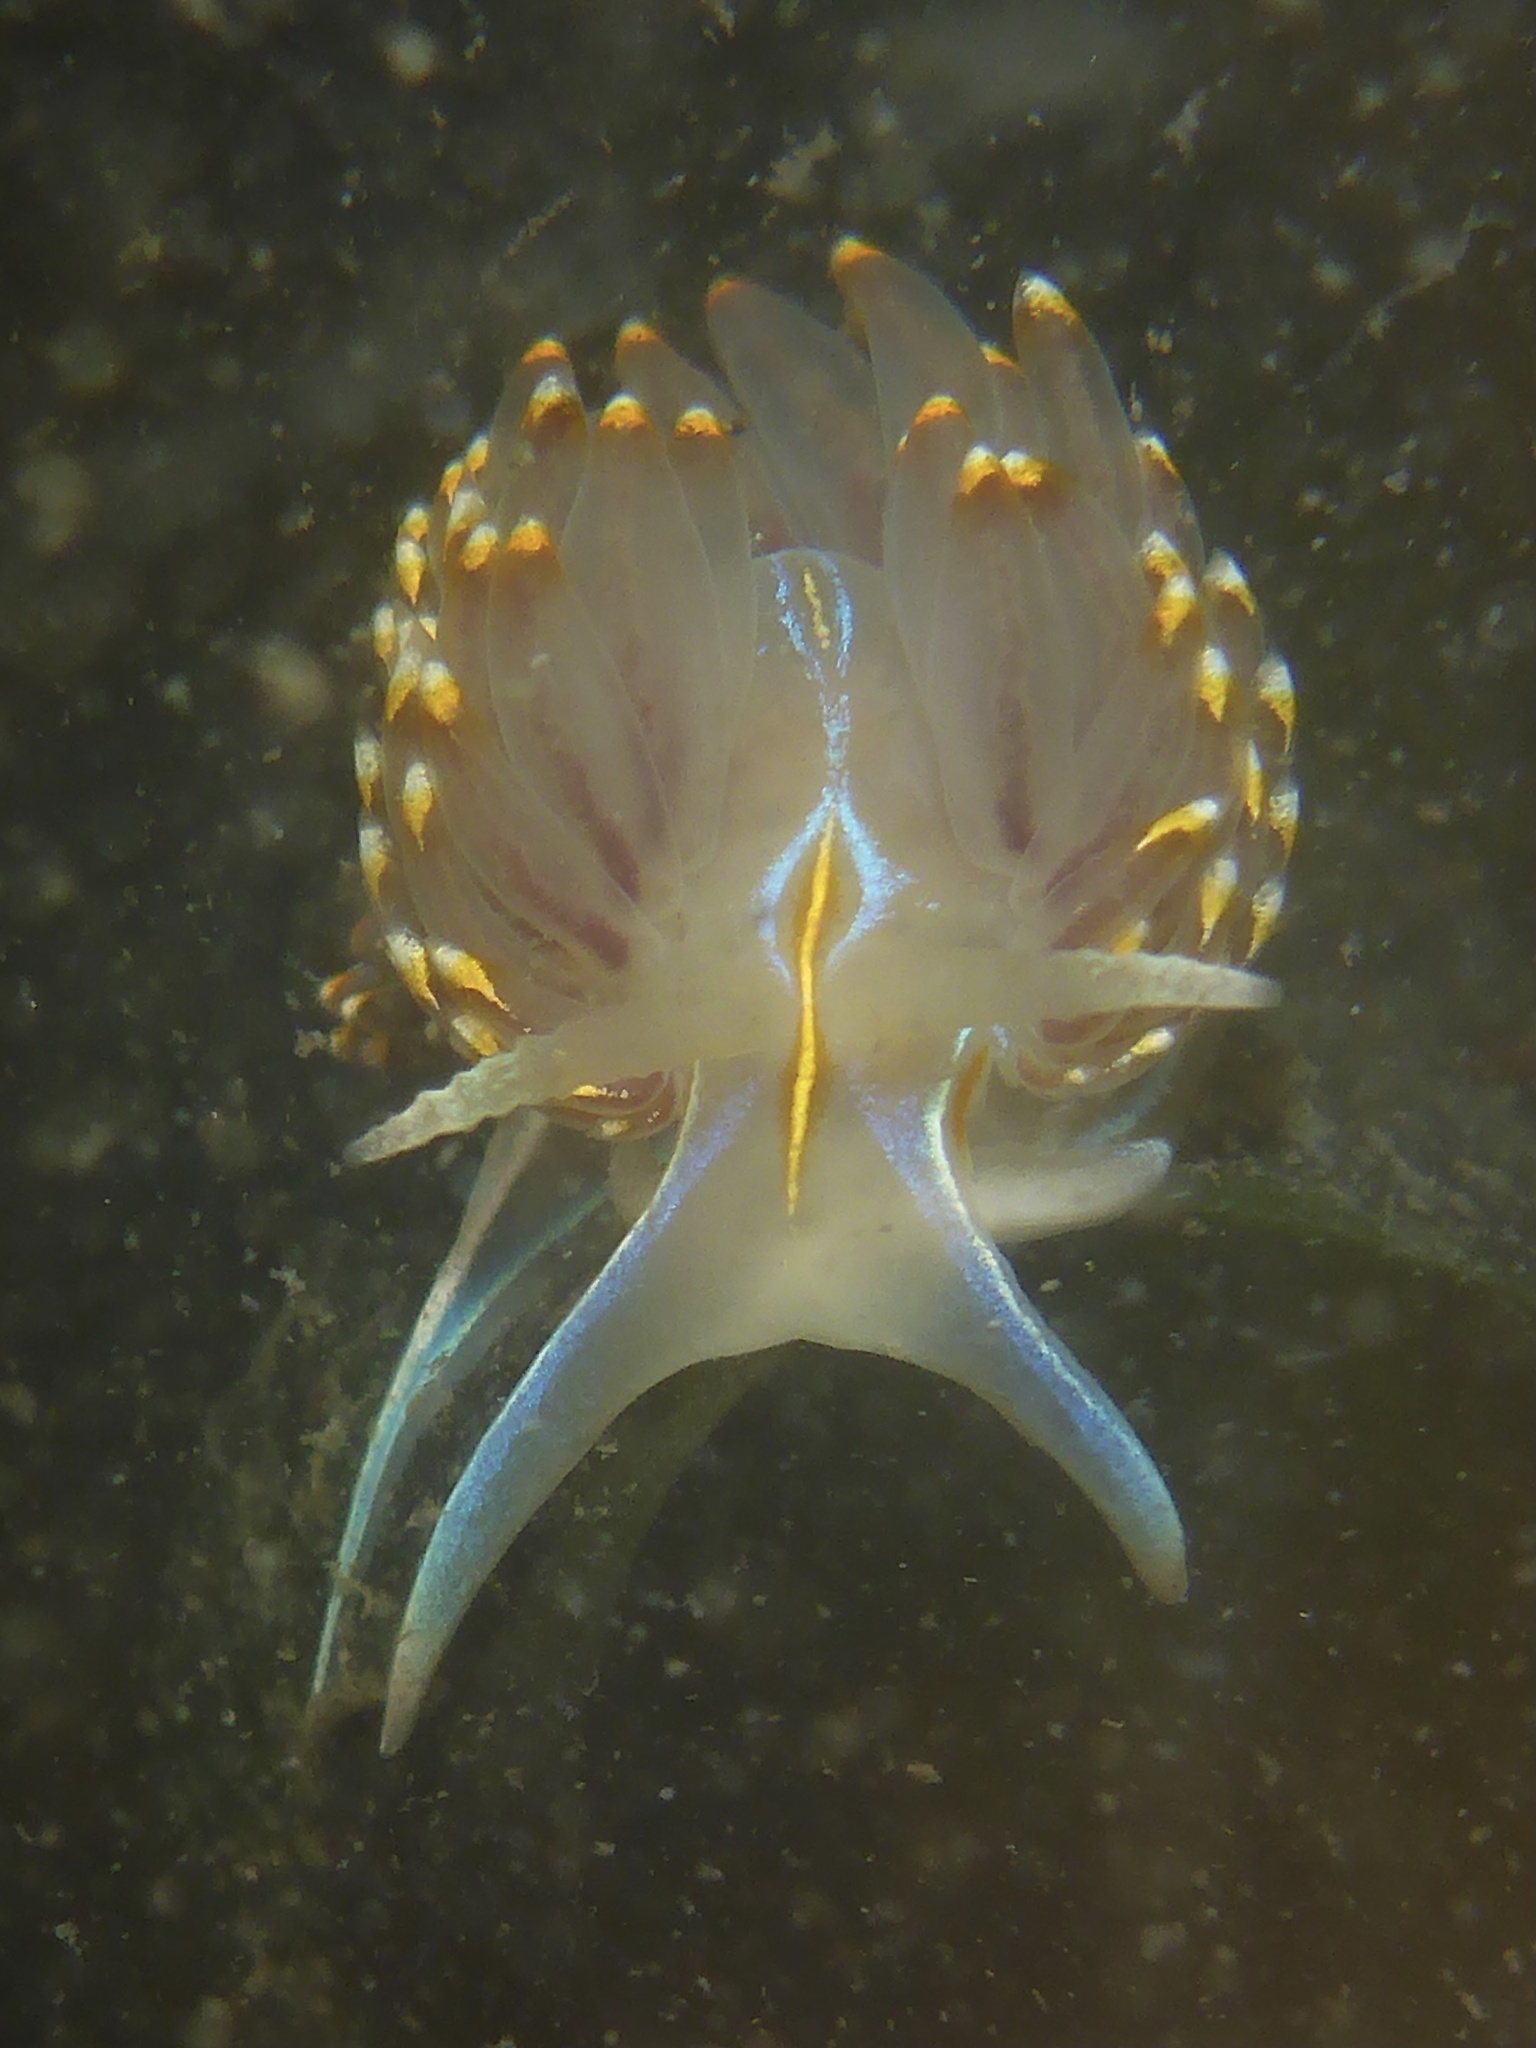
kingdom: Animalia
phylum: Mollusca
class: Gastropoda
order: Nudibranchia
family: Myrrhinidae
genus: Hermissenda
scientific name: Hermissenda opalescens
